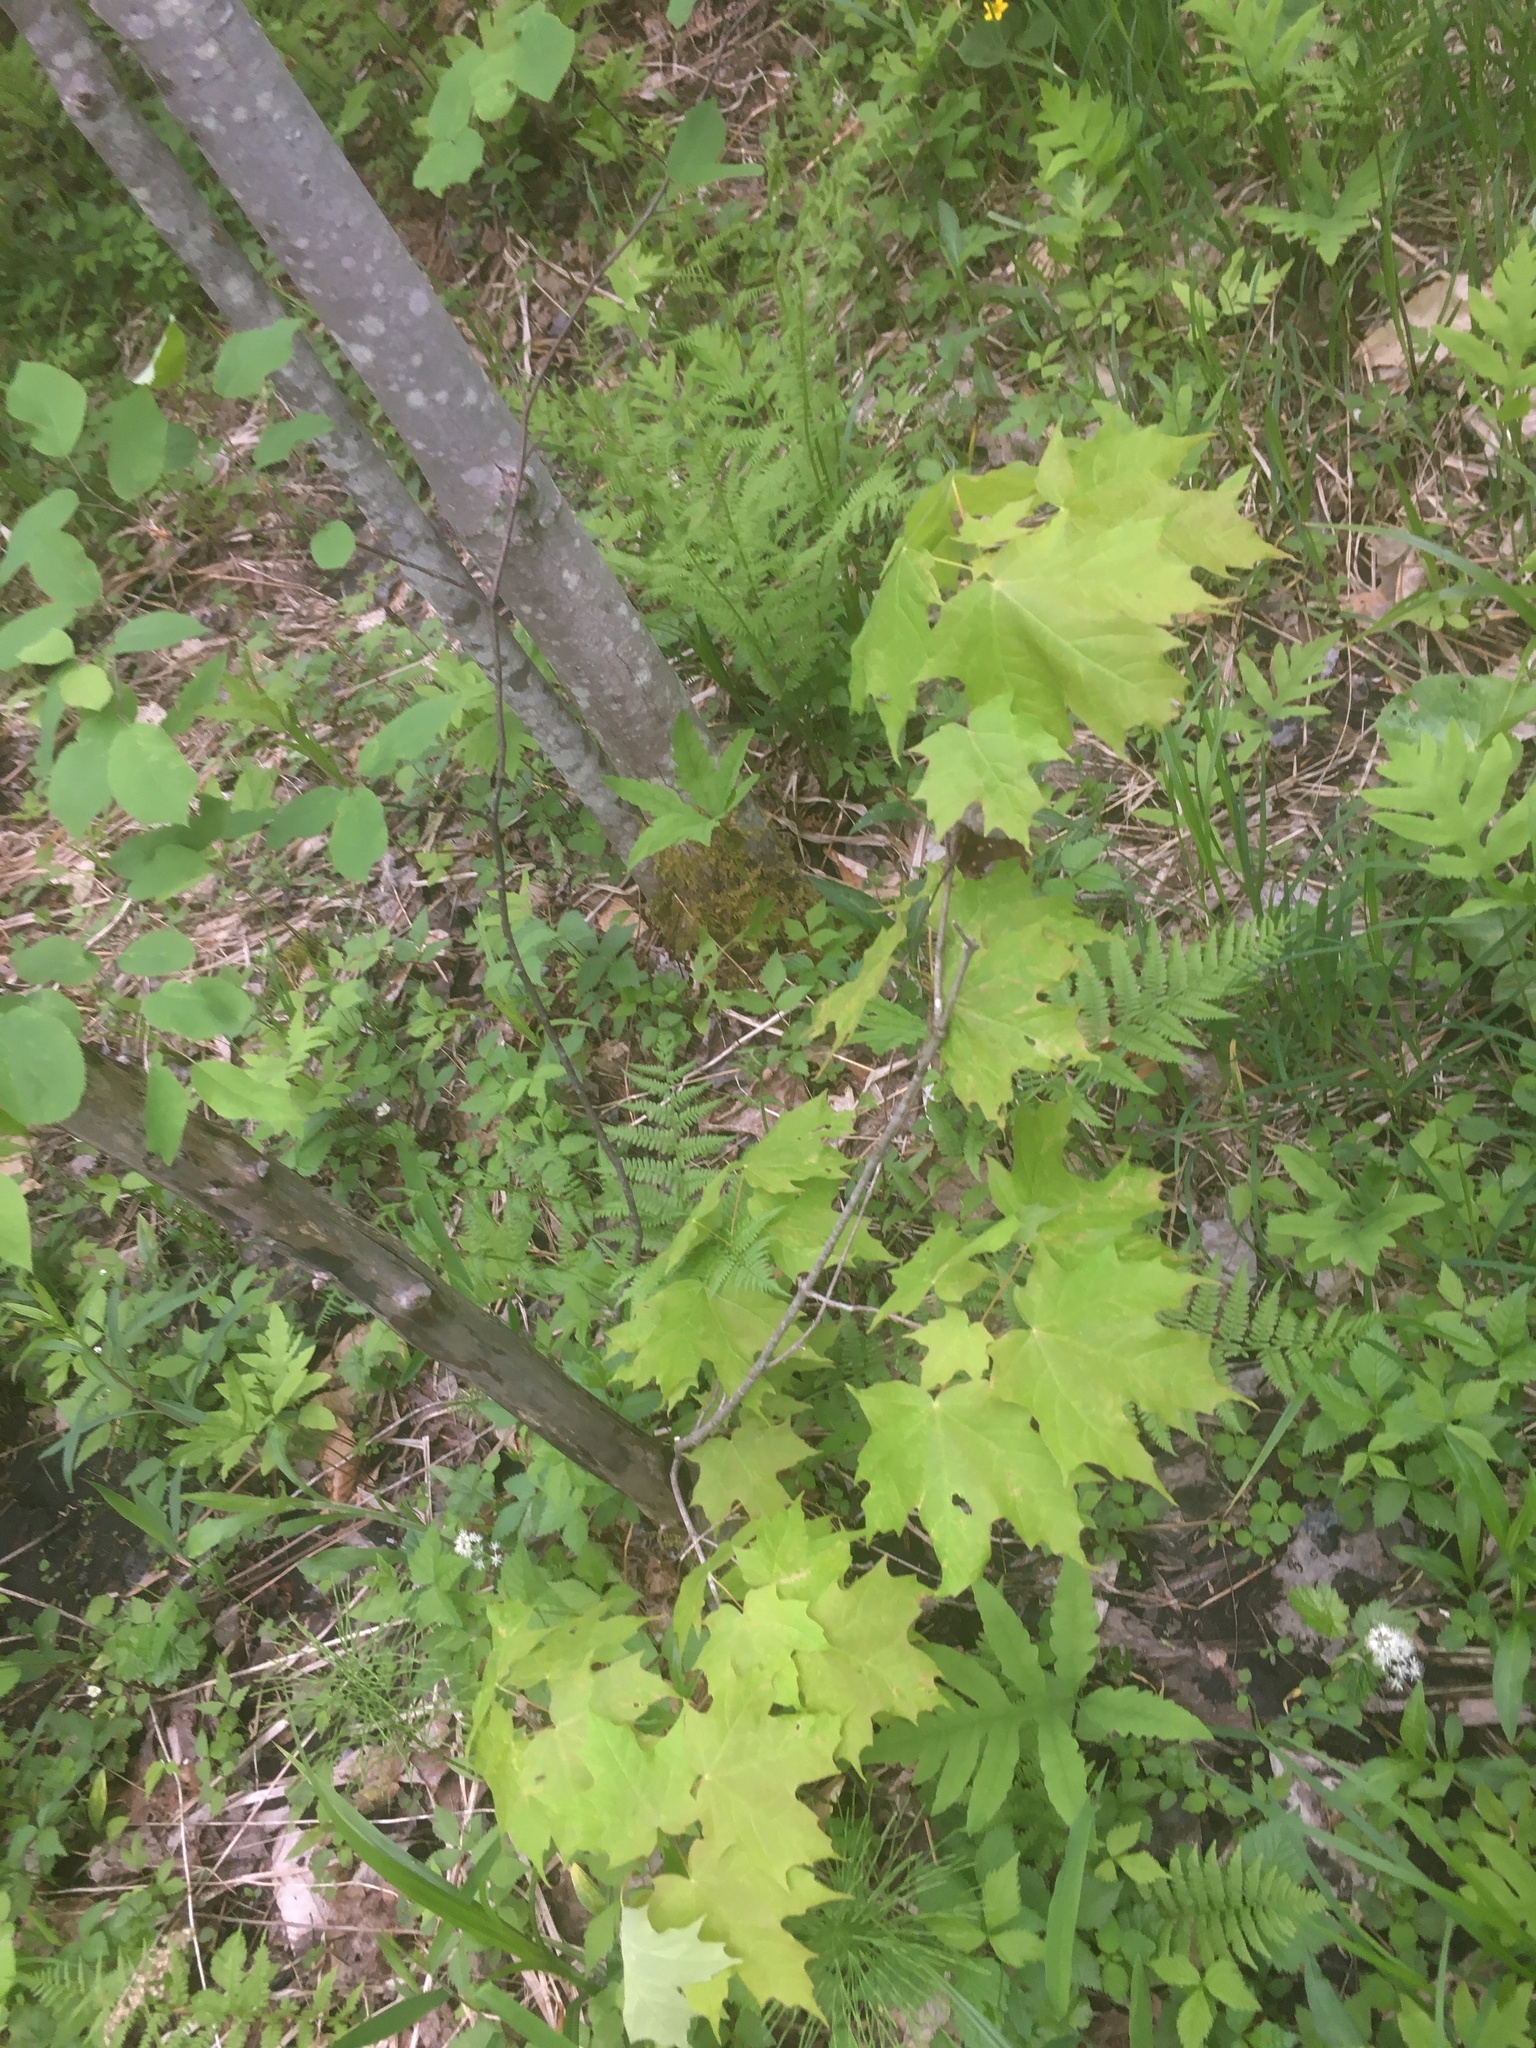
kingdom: Plantae
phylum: Tracheophyta
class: Magnoliopsida
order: Sapindales
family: Sapindaceae
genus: Acer
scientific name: Acer saccharum
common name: Sugar maple
